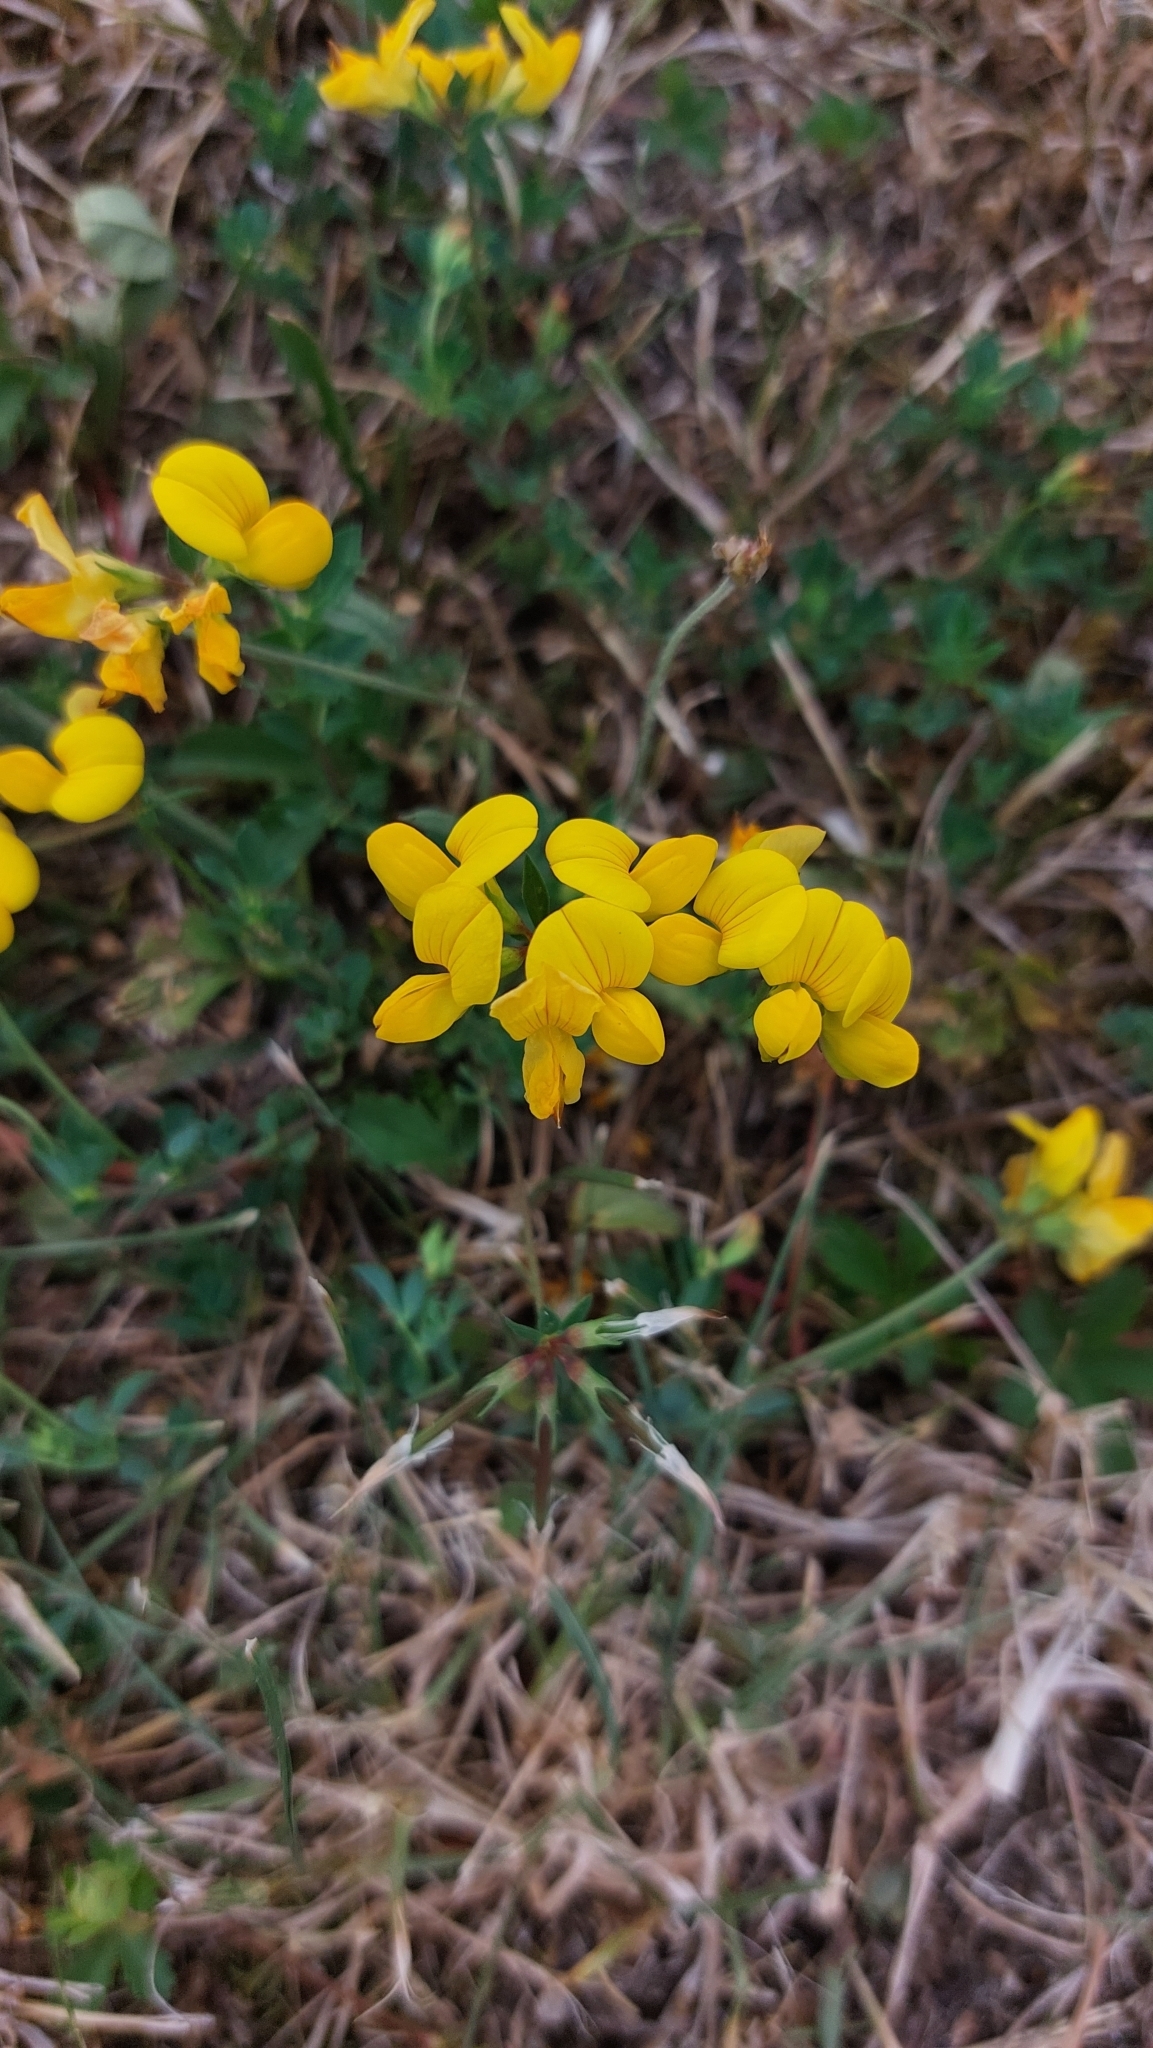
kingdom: Plantae
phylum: Tracheophyta
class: Magnoliopsida
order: Fabales
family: Fabaceae
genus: Lotus
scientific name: Lotus corniculatus
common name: Common bird's-foot-trefoil
